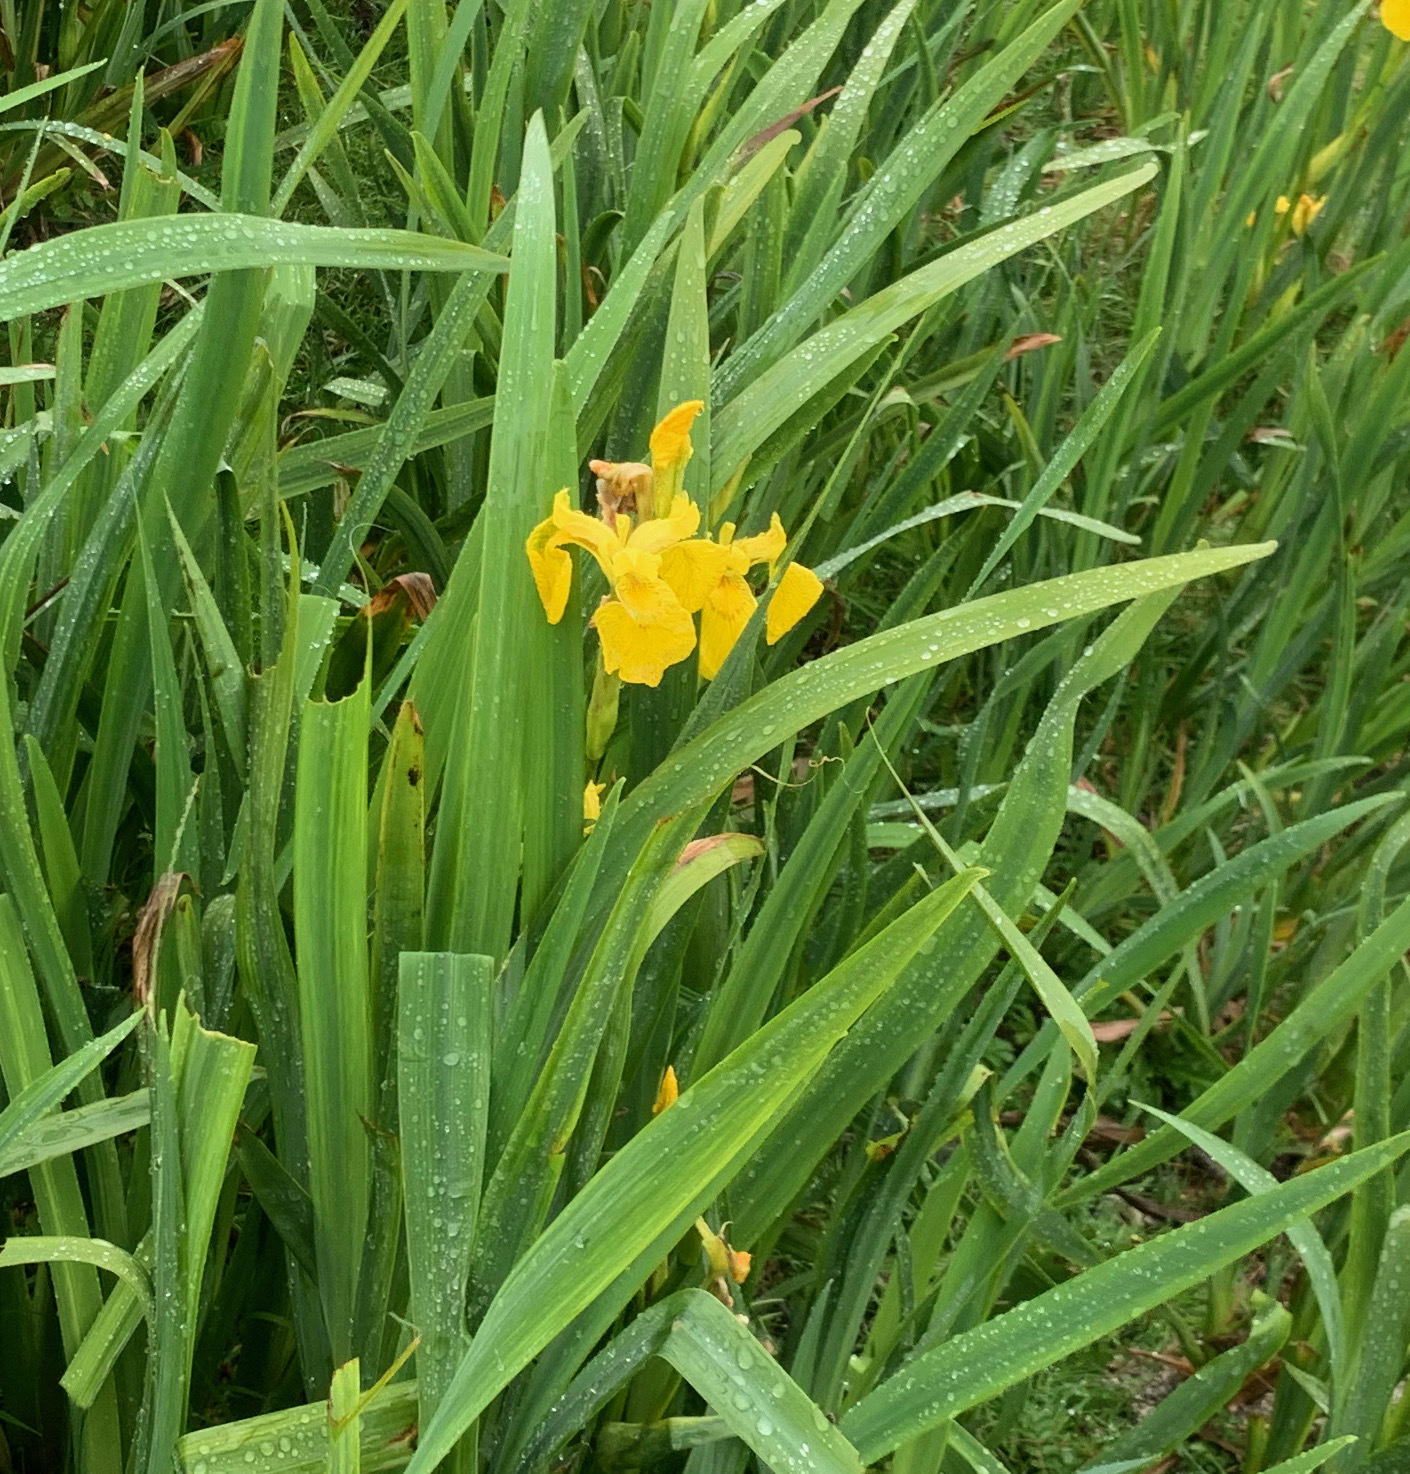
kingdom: Plantae
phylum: Tracheophyta
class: Liliopsida
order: Asparagales
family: Iridaceae
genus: Iris
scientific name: Iris pseudacorus
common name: Yellow flag
